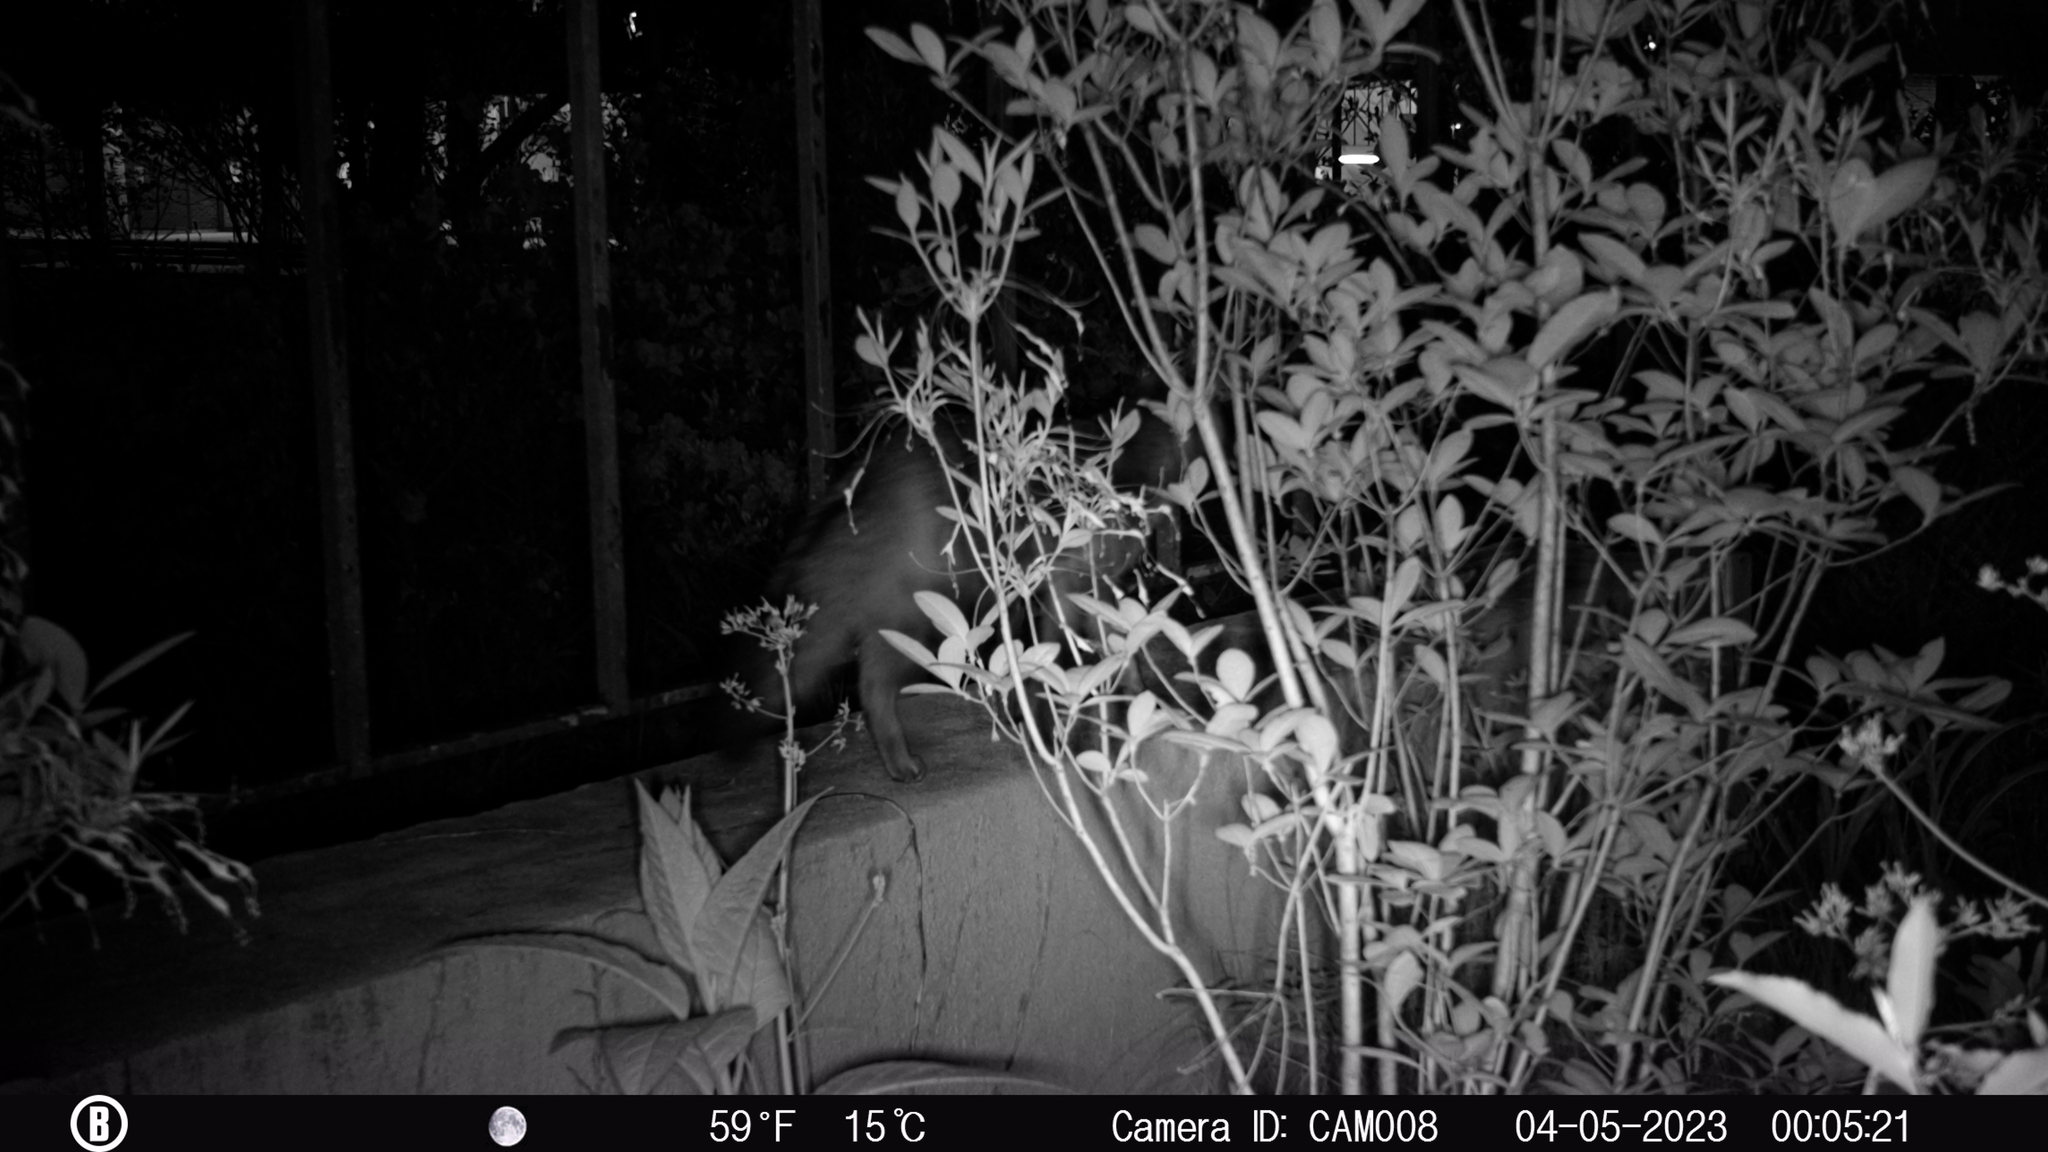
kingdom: Animalia
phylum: Chordata
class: Mammalia
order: Carnivora
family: Canidae
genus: Urocyon
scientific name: Urocyon cinereoargenteus
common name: Gray fox
